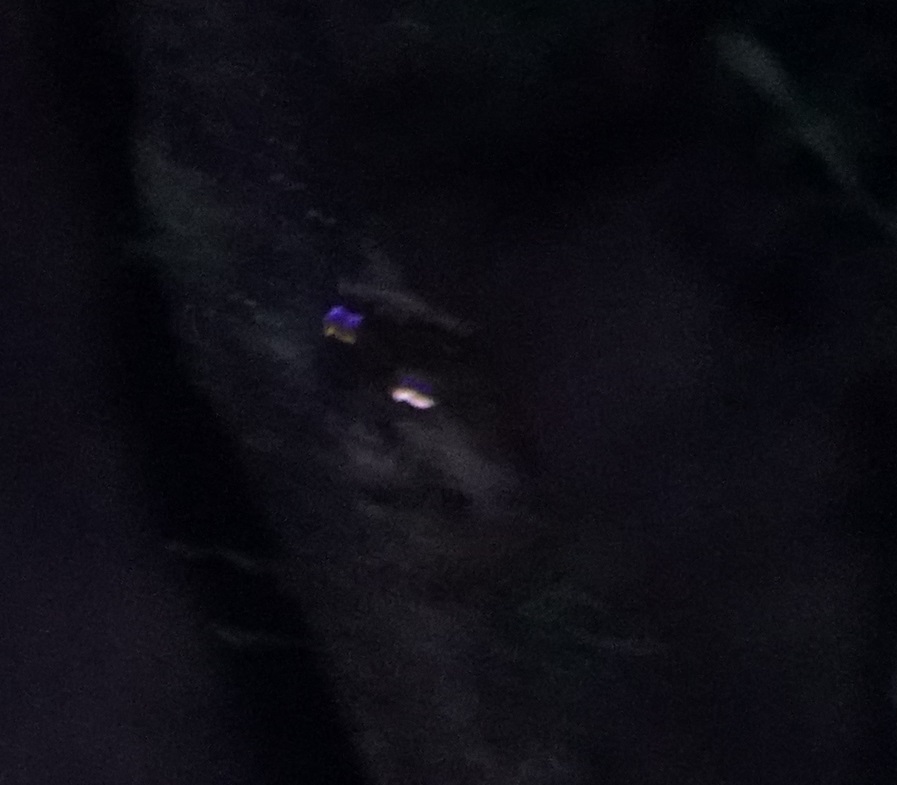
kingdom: Animalia
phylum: Chordata
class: Amphibia
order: Anura
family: Pelodryadidae
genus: Ranoidea
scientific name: Ranoidea serrata
